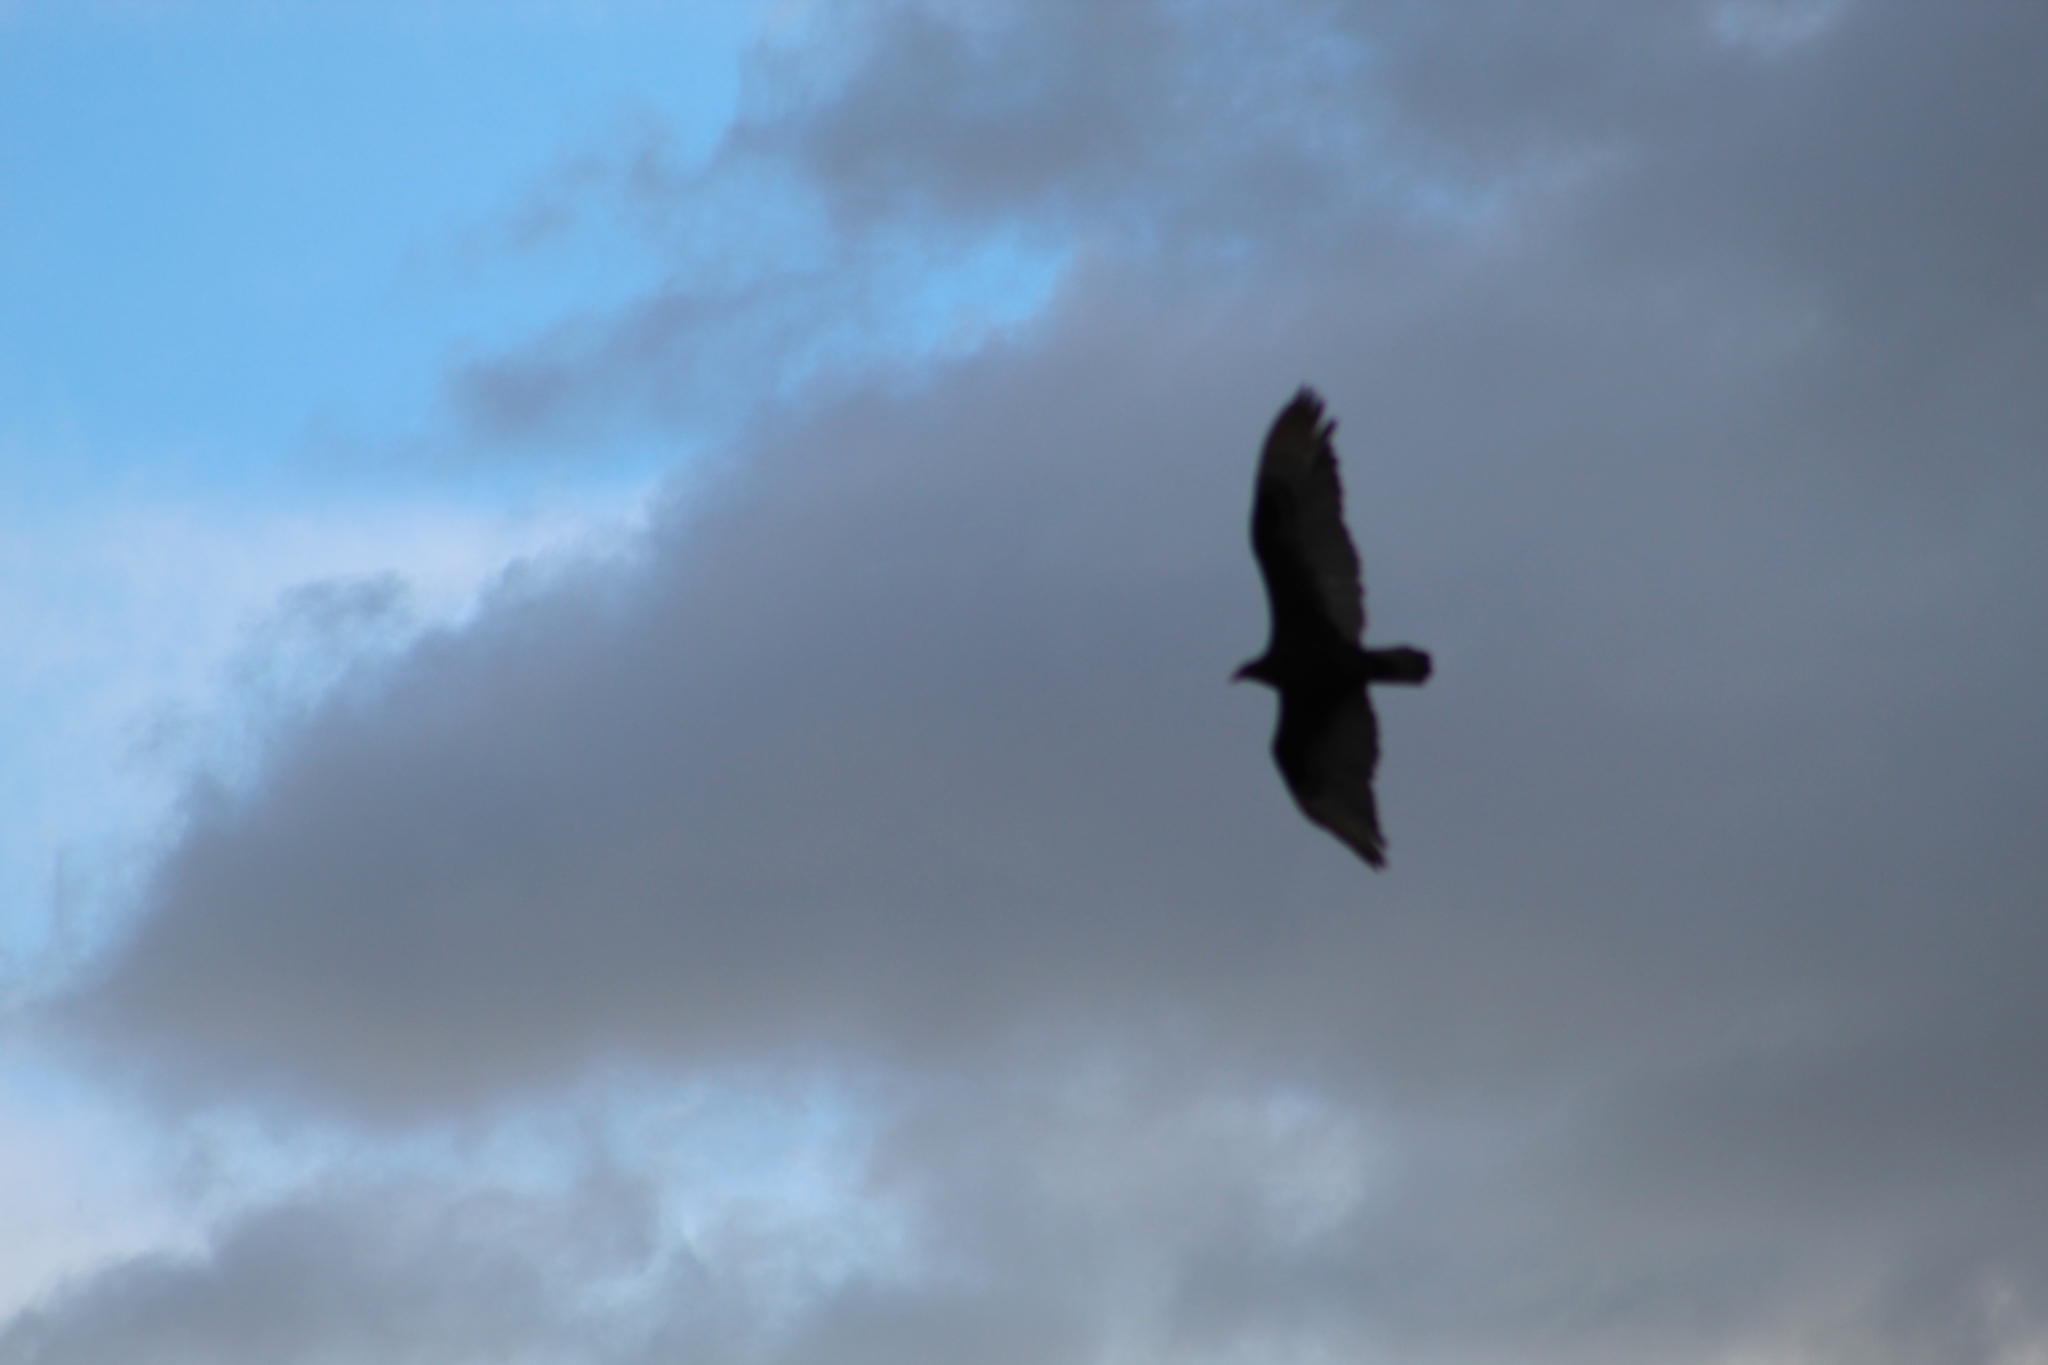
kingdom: Animalia
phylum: Chordata
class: Aves
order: Accipitriformes
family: Cathartidae
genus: Cathartes
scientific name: Cathartes aura
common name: Turkey vulture
